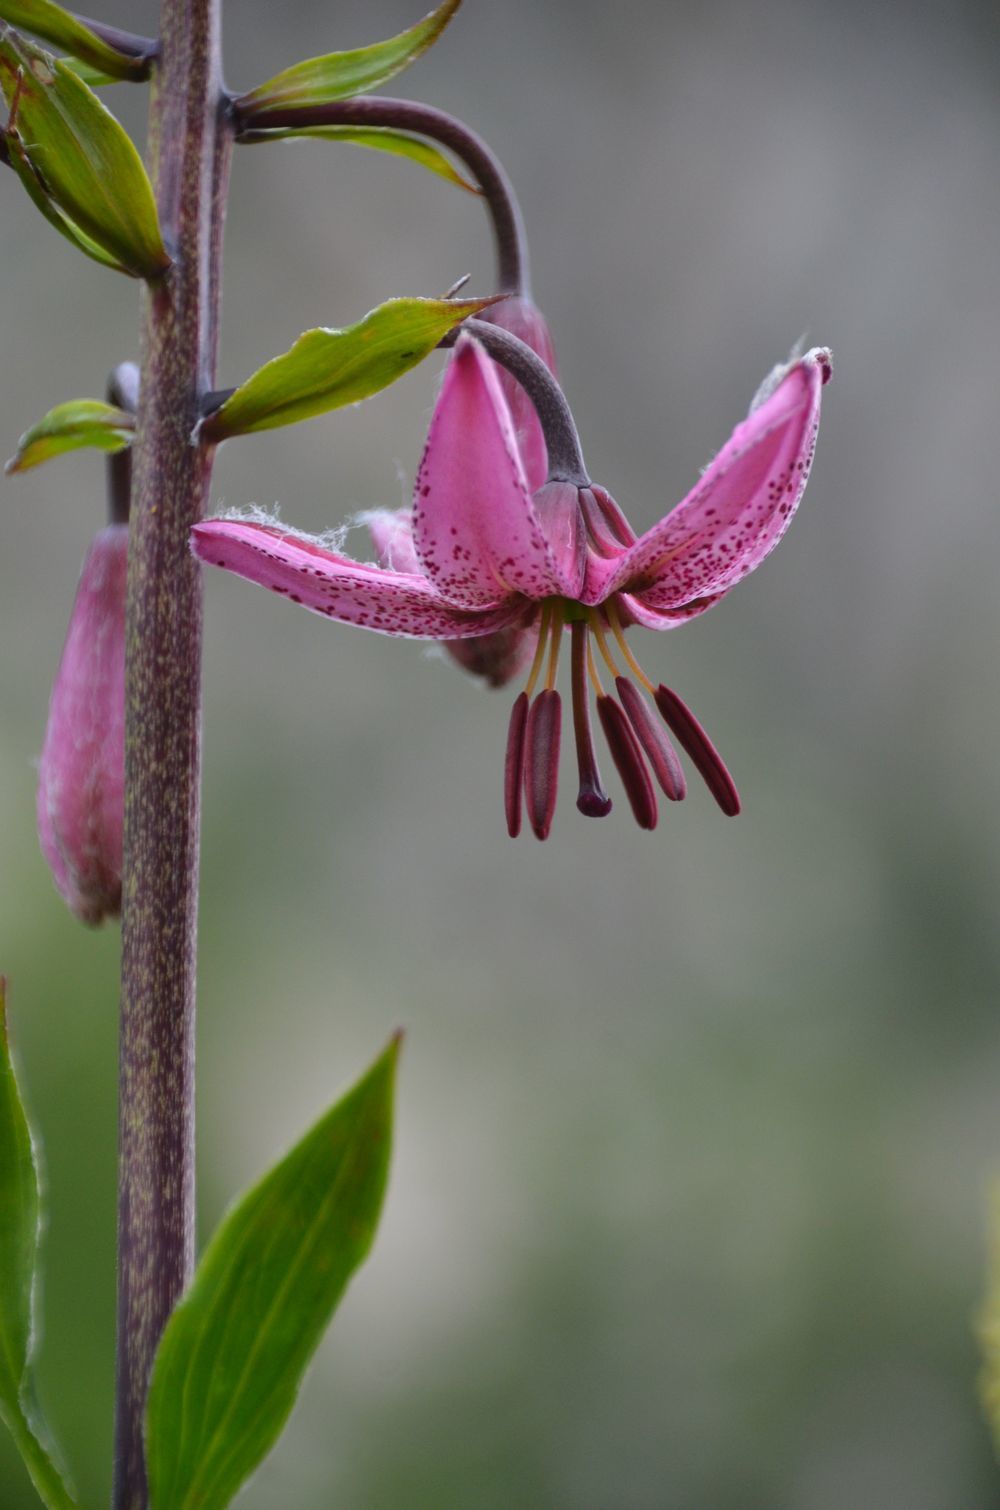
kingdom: Plantae
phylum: Tracheophyta
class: Liliopsida
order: Liliales
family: Liliaceae
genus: Lilium
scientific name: Lilium martagon
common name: Martagon lily
